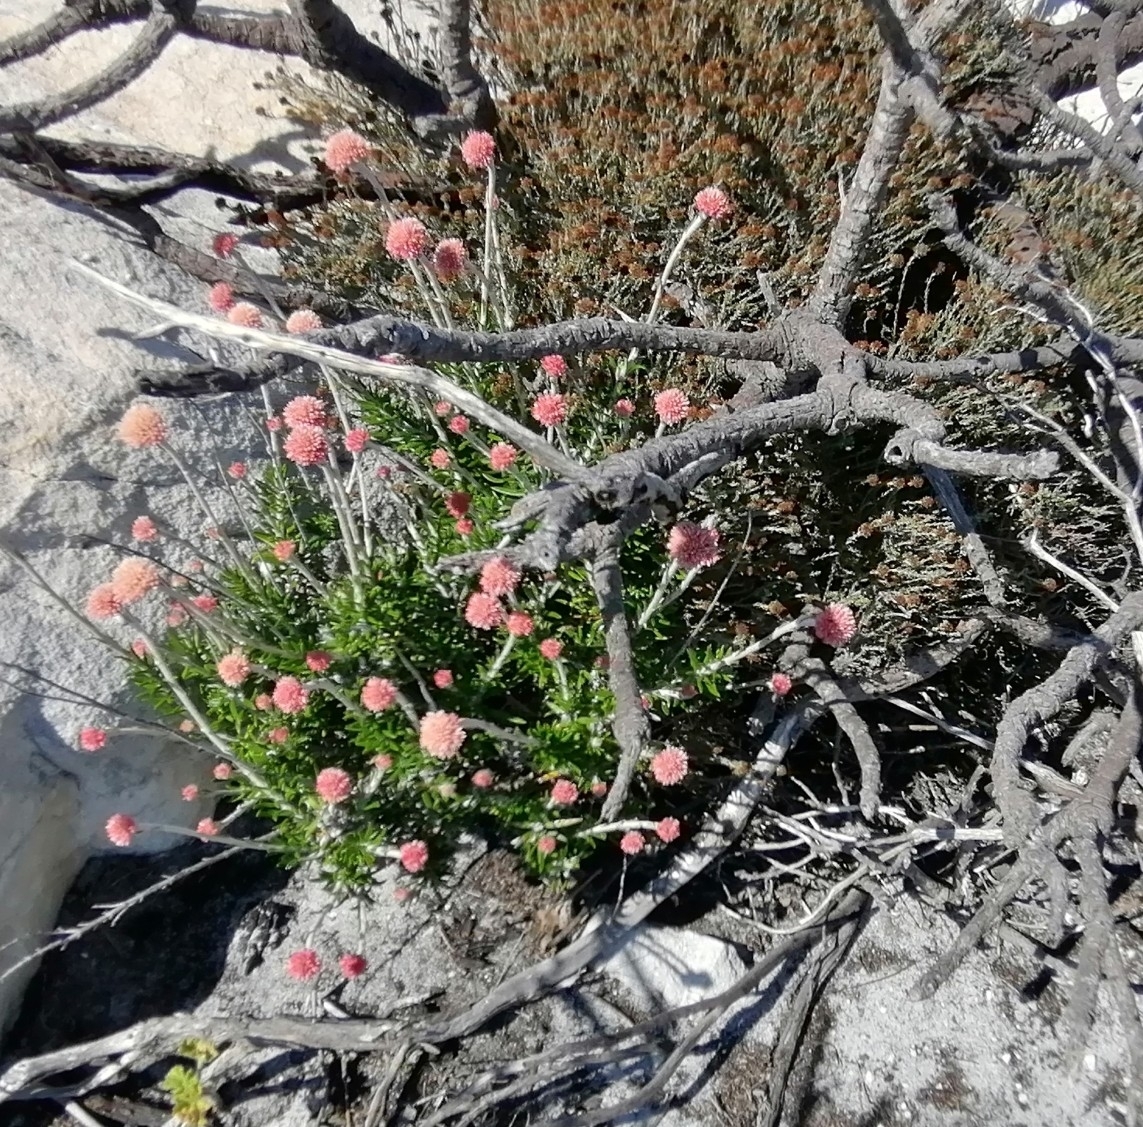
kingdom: Plantae
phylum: Tracheophyta
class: Magnoliopsida
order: Asterales
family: Asteraceae
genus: Anaxeton
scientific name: Anaxeton laeve
